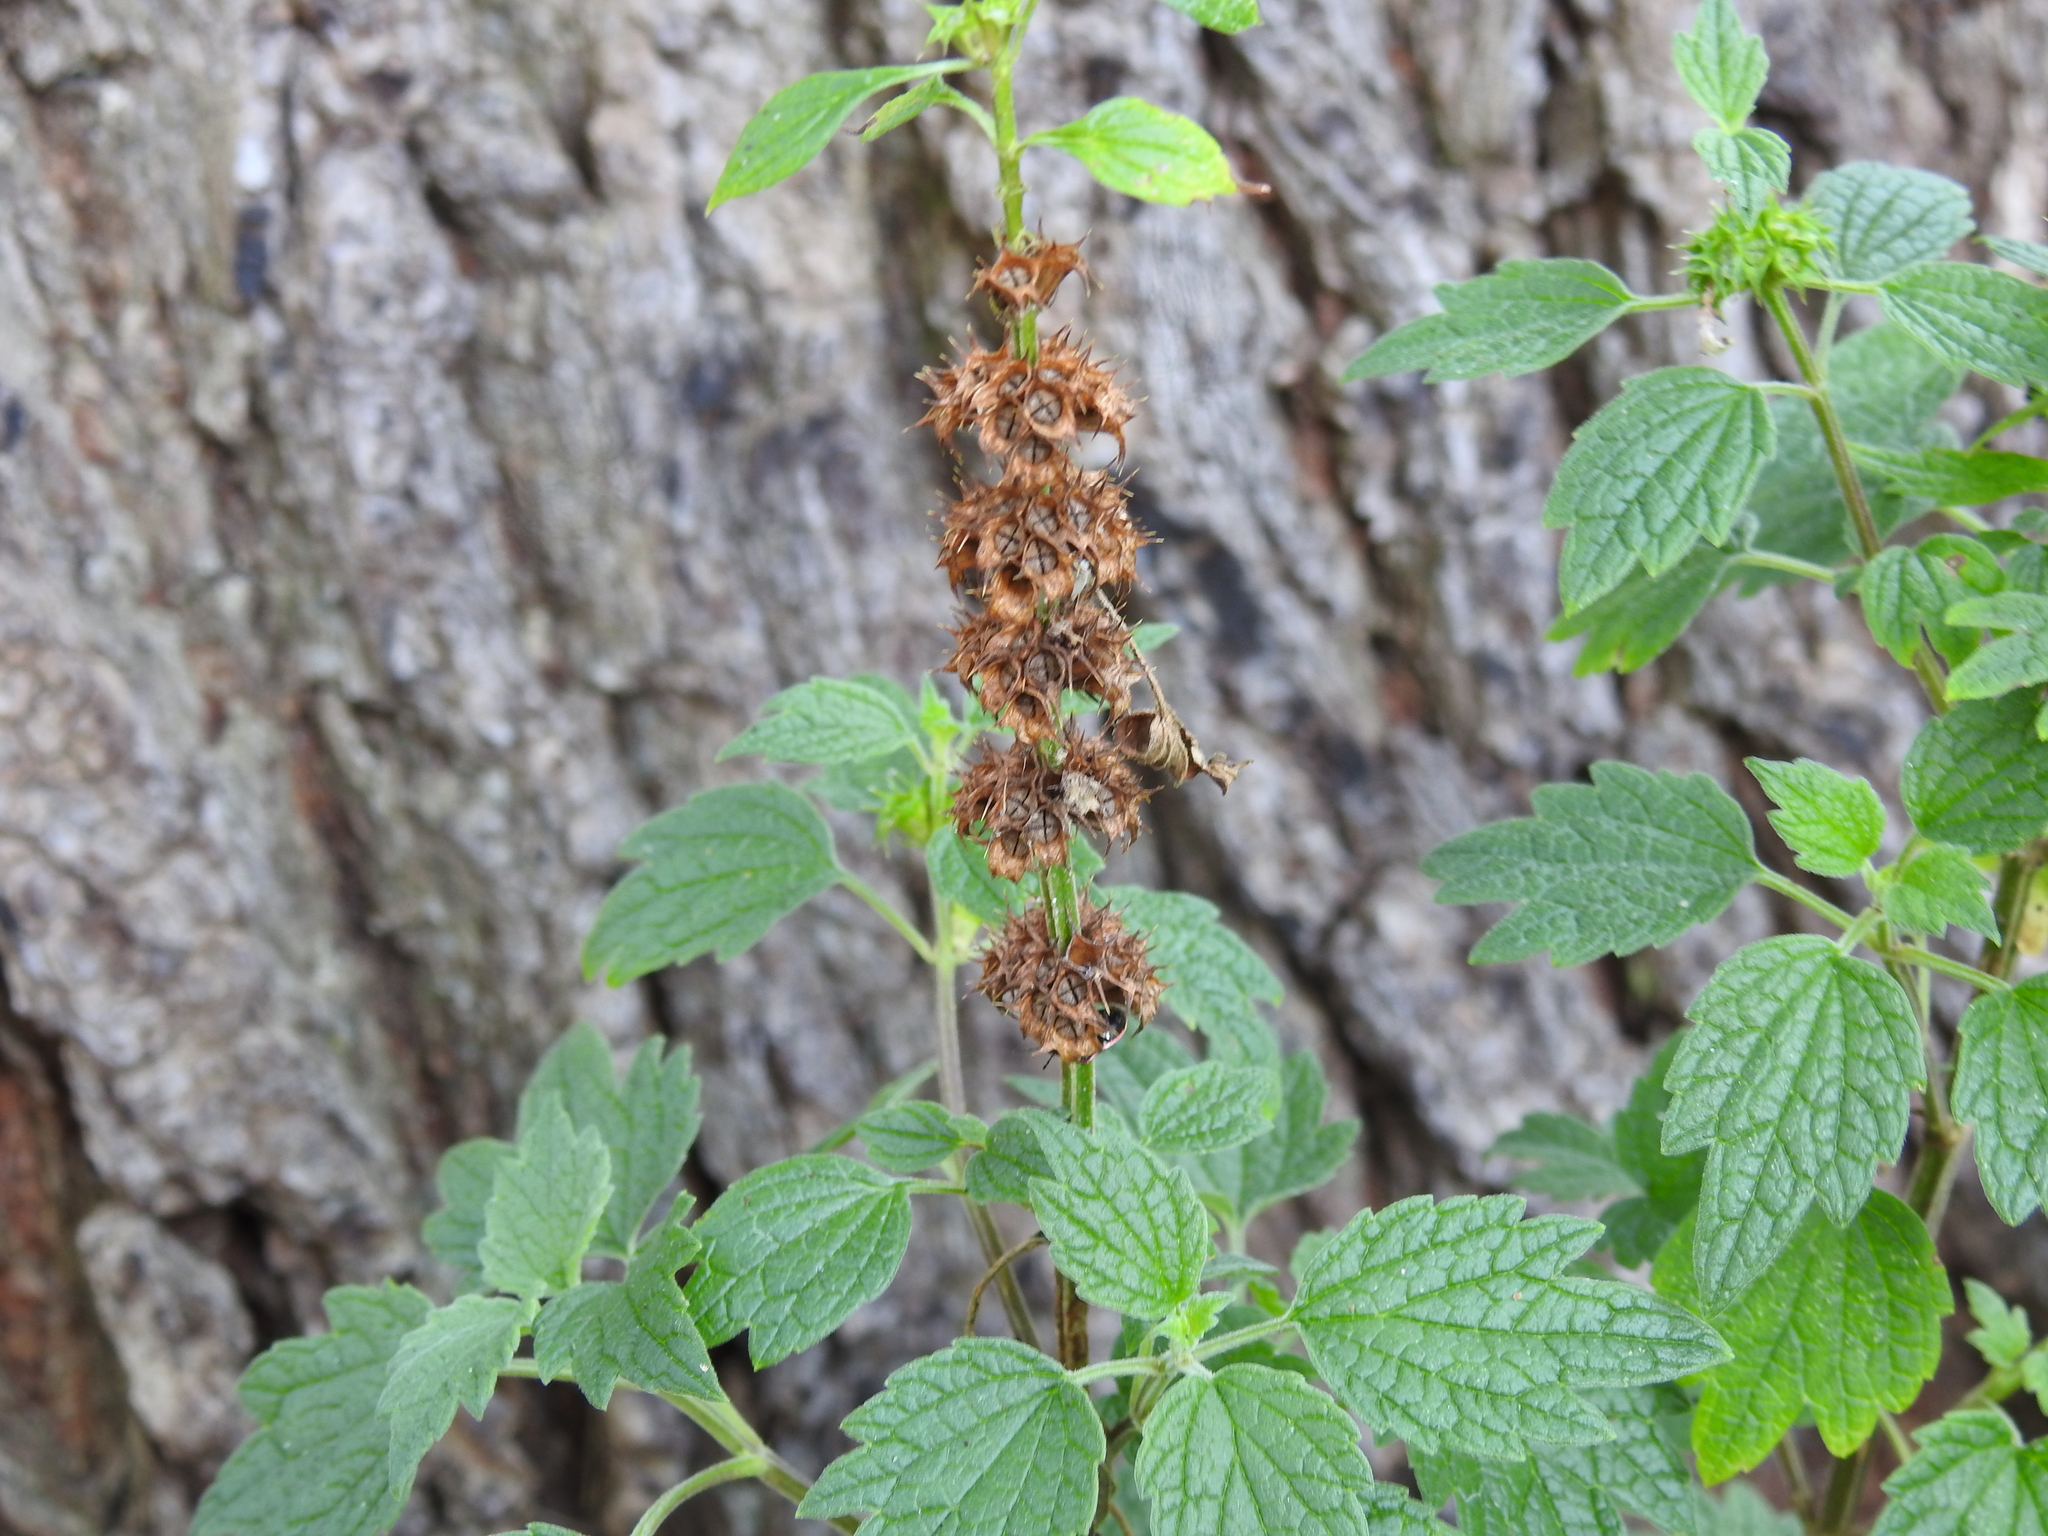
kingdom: Plantae
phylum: Tracheophyta
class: Magnoliopsida
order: Lamiales
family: Lamiaceae
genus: Leonurus
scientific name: Leonurus cardiaca
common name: Motherwort
